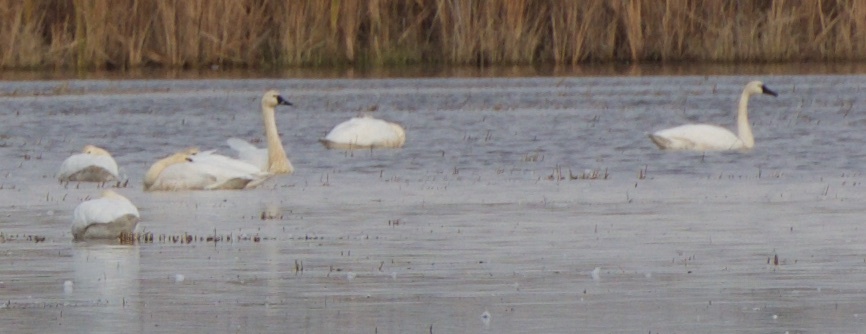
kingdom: Animalia
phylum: Chordata
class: Aves
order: Anseriformes
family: Anatidae
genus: Cygnus
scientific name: Cygnus columbianus
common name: Tundra swan
